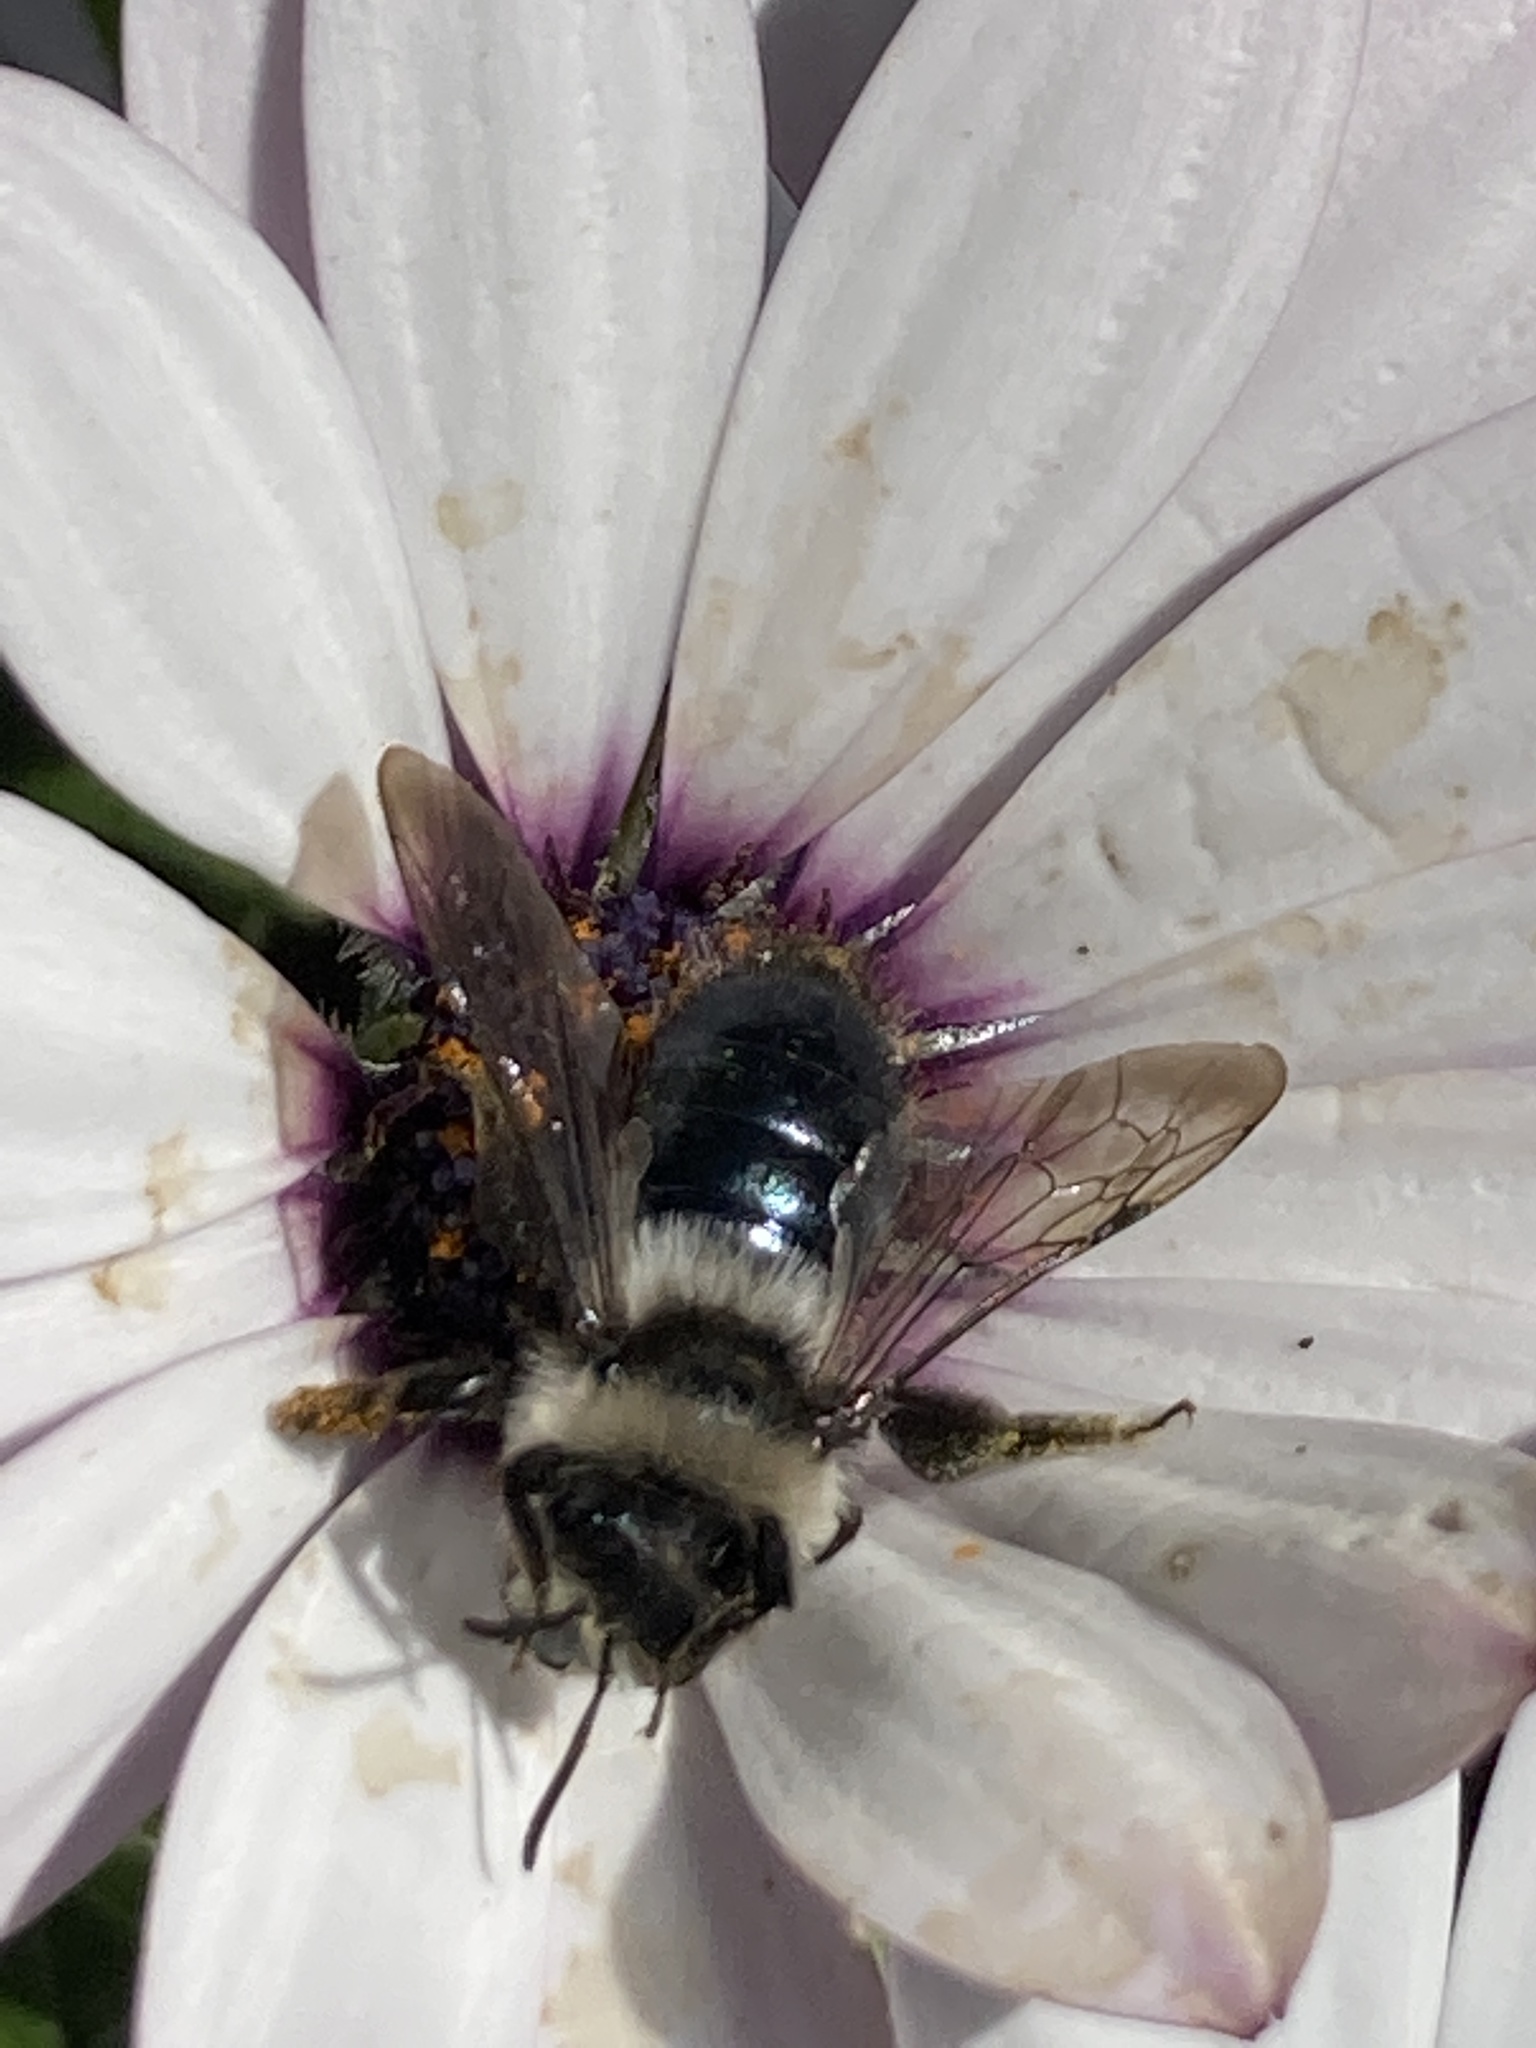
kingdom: Animalia
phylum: Arthropoda
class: Insecta
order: Hymenoptera
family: Andrenidae
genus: Andrena
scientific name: Andrena cineraria
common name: Ashy mining bee
